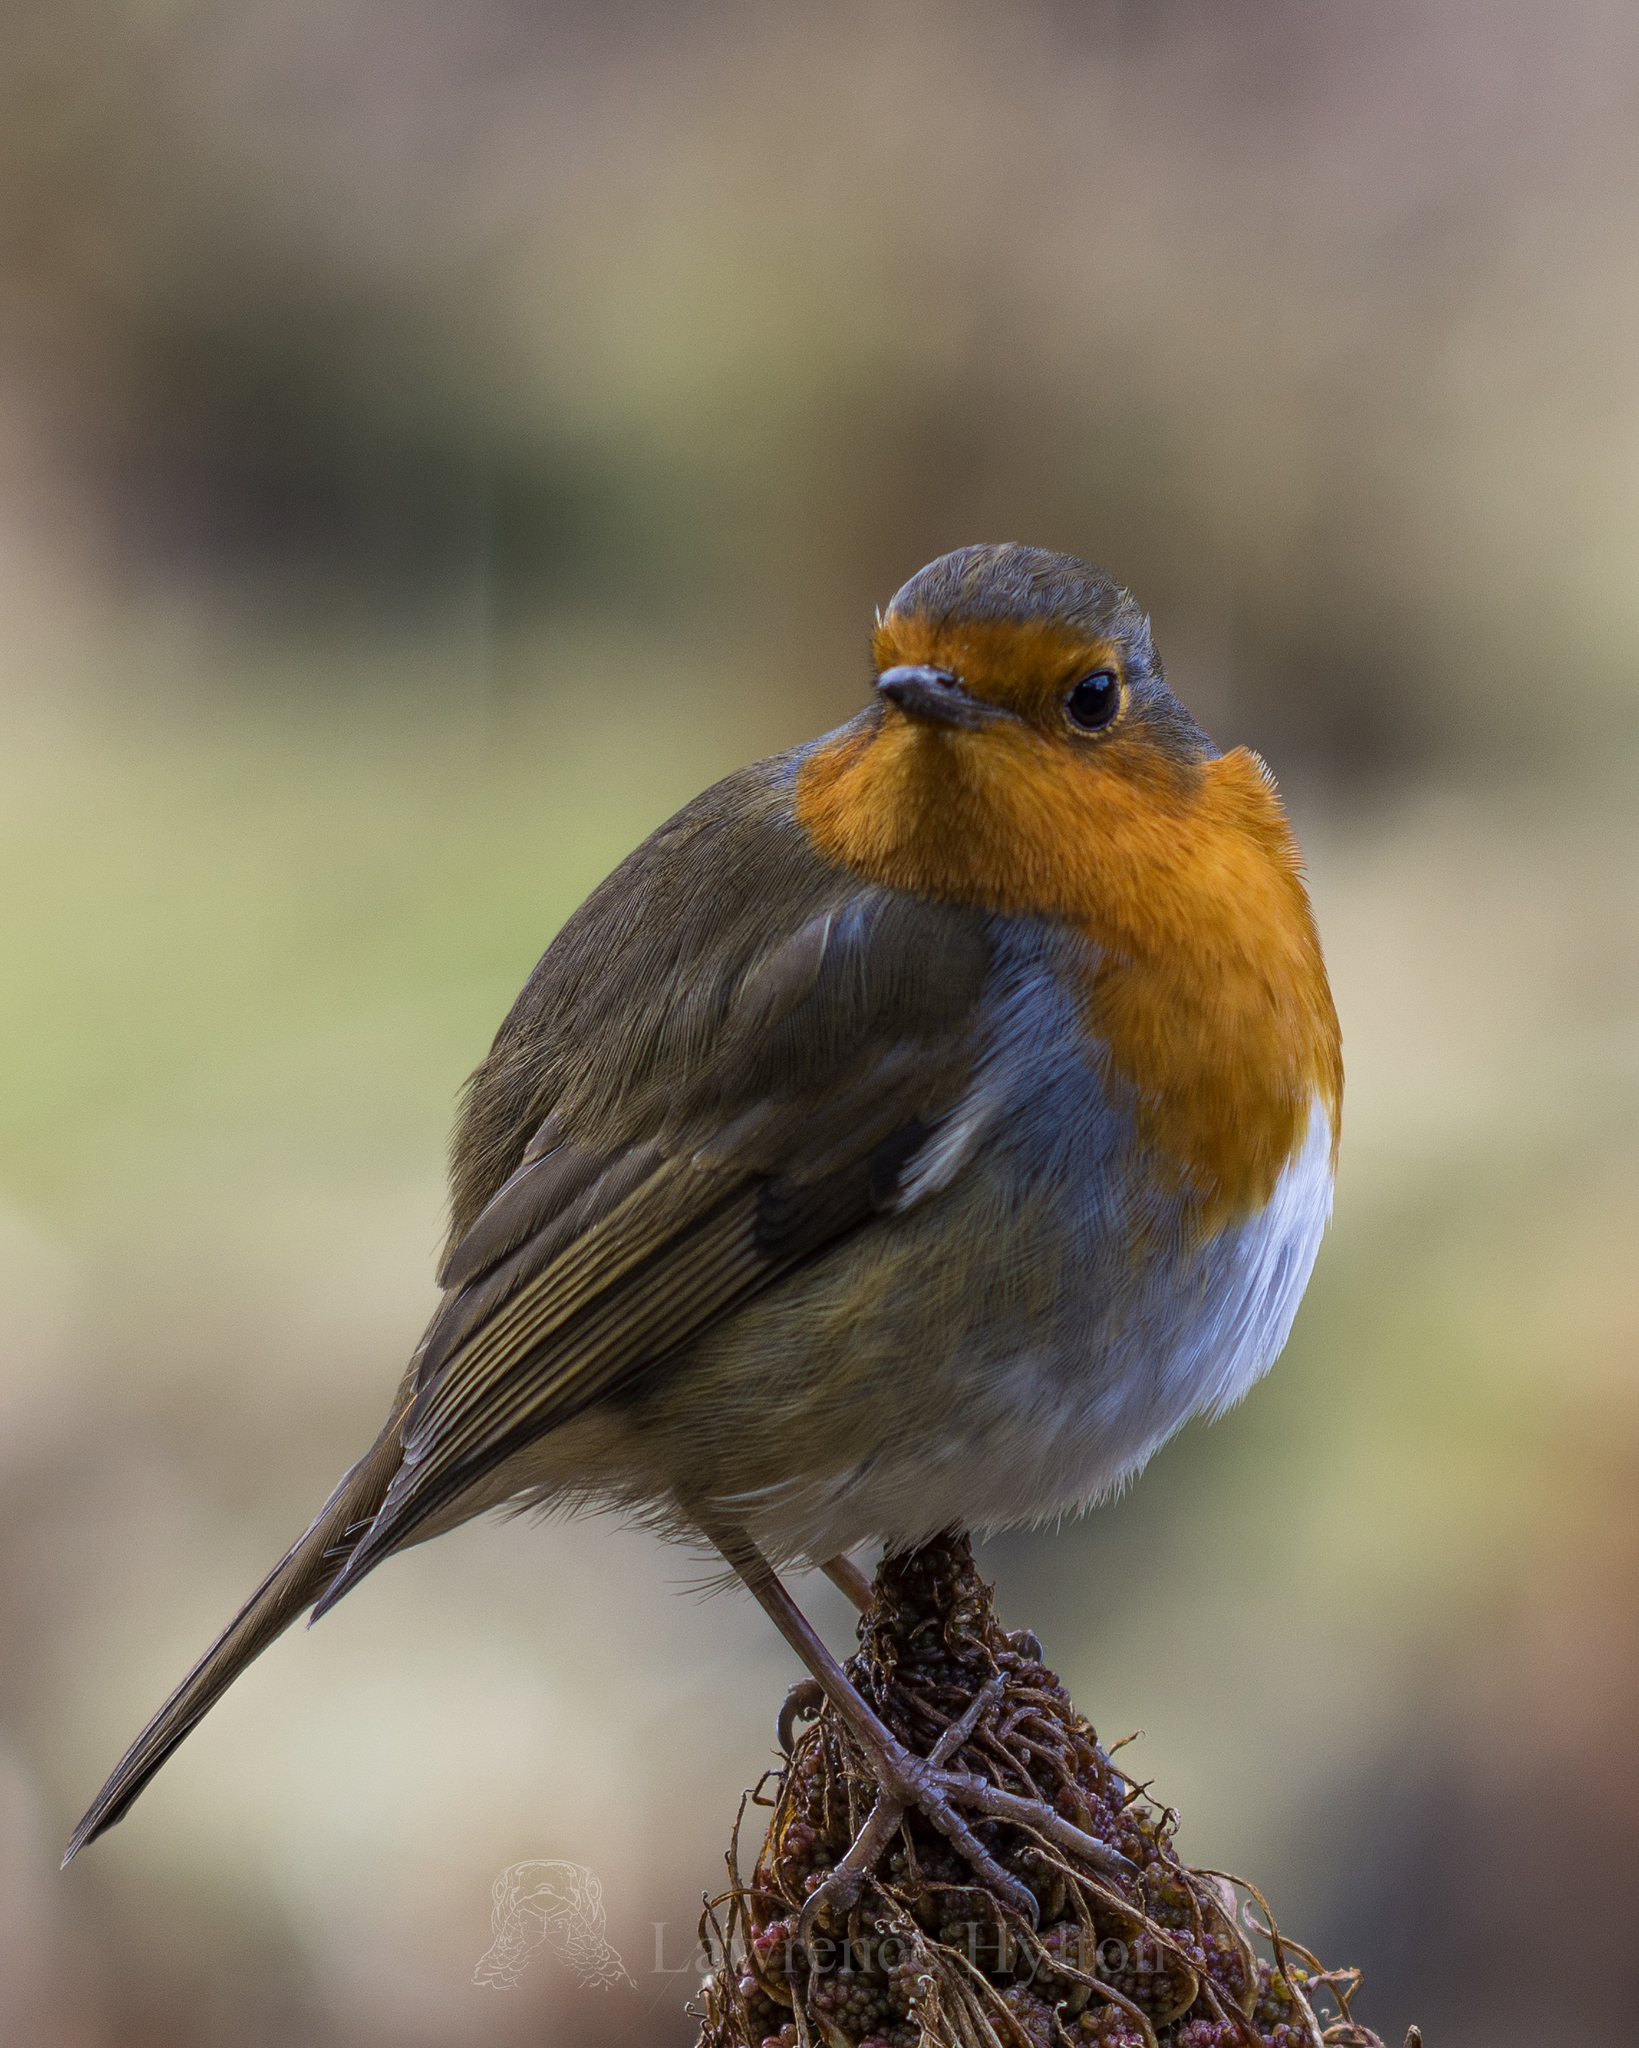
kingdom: Animalia
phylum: Chordata
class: Aves
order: Passeriformes
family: Muscicapidae
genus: Erithacus
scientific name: Erithacus rubecula
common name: European robin
